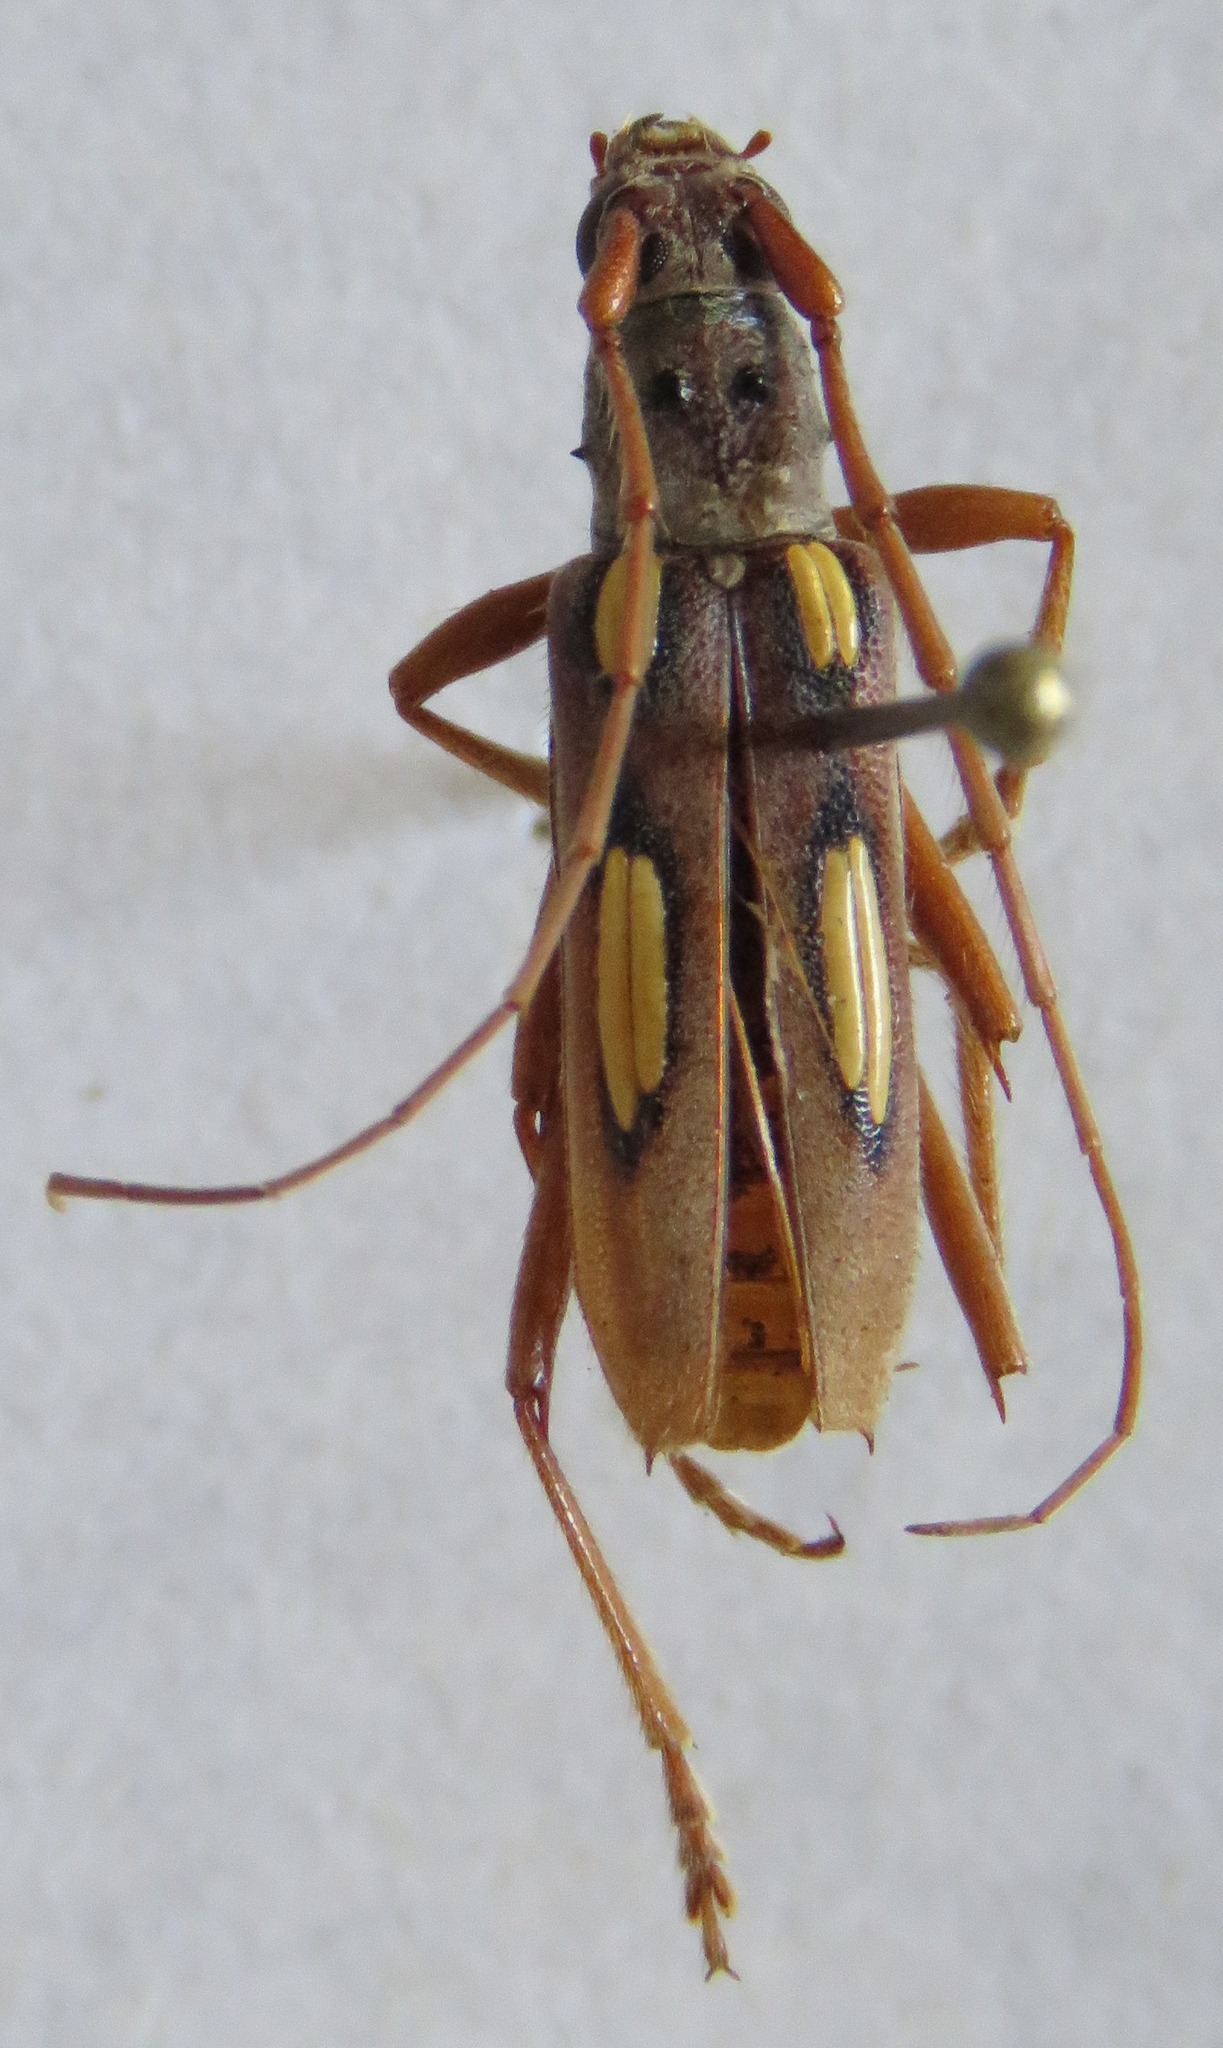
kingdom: Animalia
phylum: Arthropoda
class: Insecta
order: Coleoptera
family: Cerambycidae
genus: Eburia
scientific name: Eburia copei
